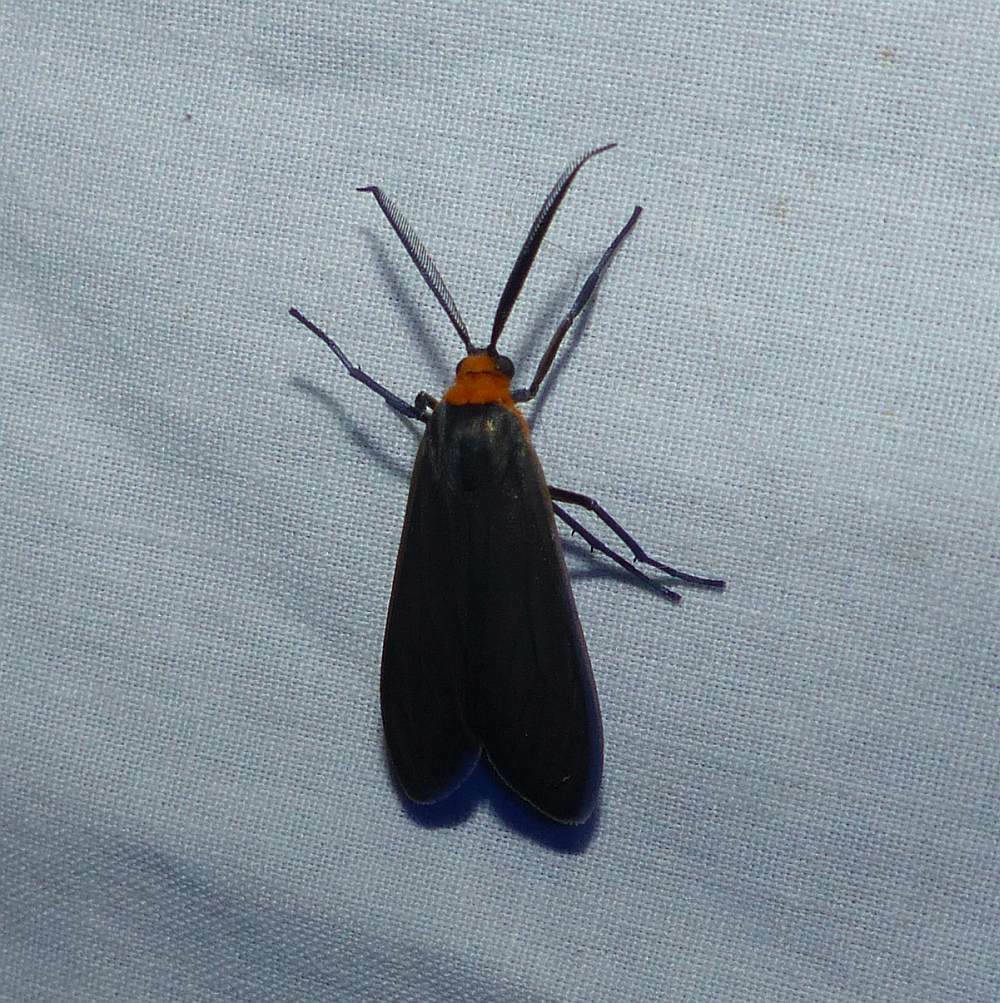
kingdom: Animalia
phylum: Arthropoda
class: Insecta
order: Lepidoptera
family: Erebidae
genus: Cisseps
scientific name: Cisseps fulvicollis
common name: Yellow-collared scape moth
